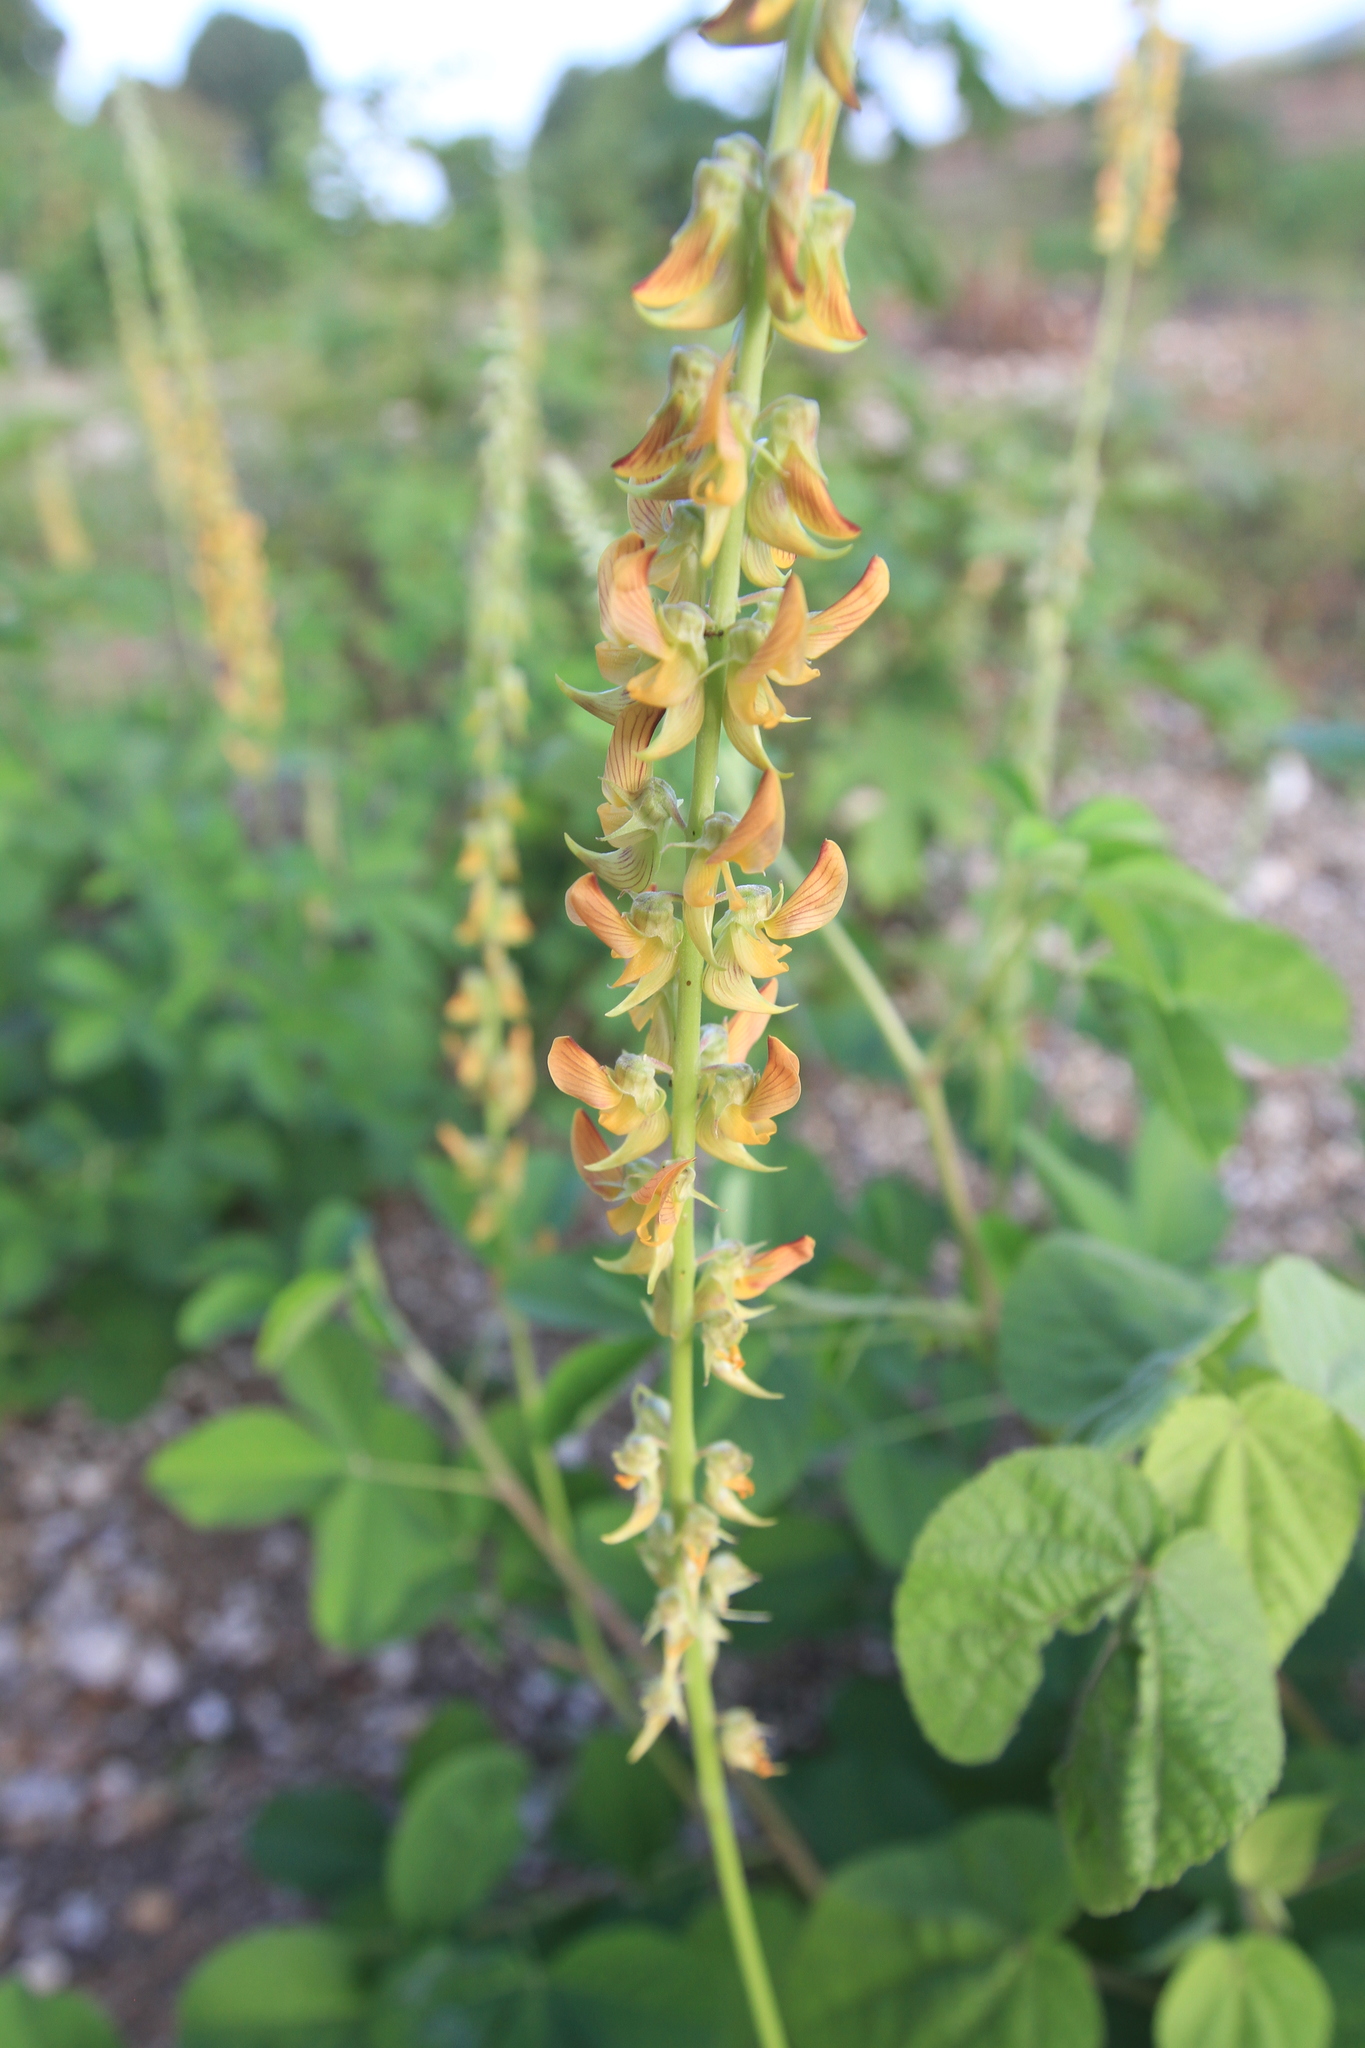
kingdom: Plantae
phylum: Tracheophyta
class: Magnoliopsida
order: Fabales
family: Fabaceae
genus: Crotalaria
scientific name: Crotalaria pallida
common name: Smooth rattlebox
